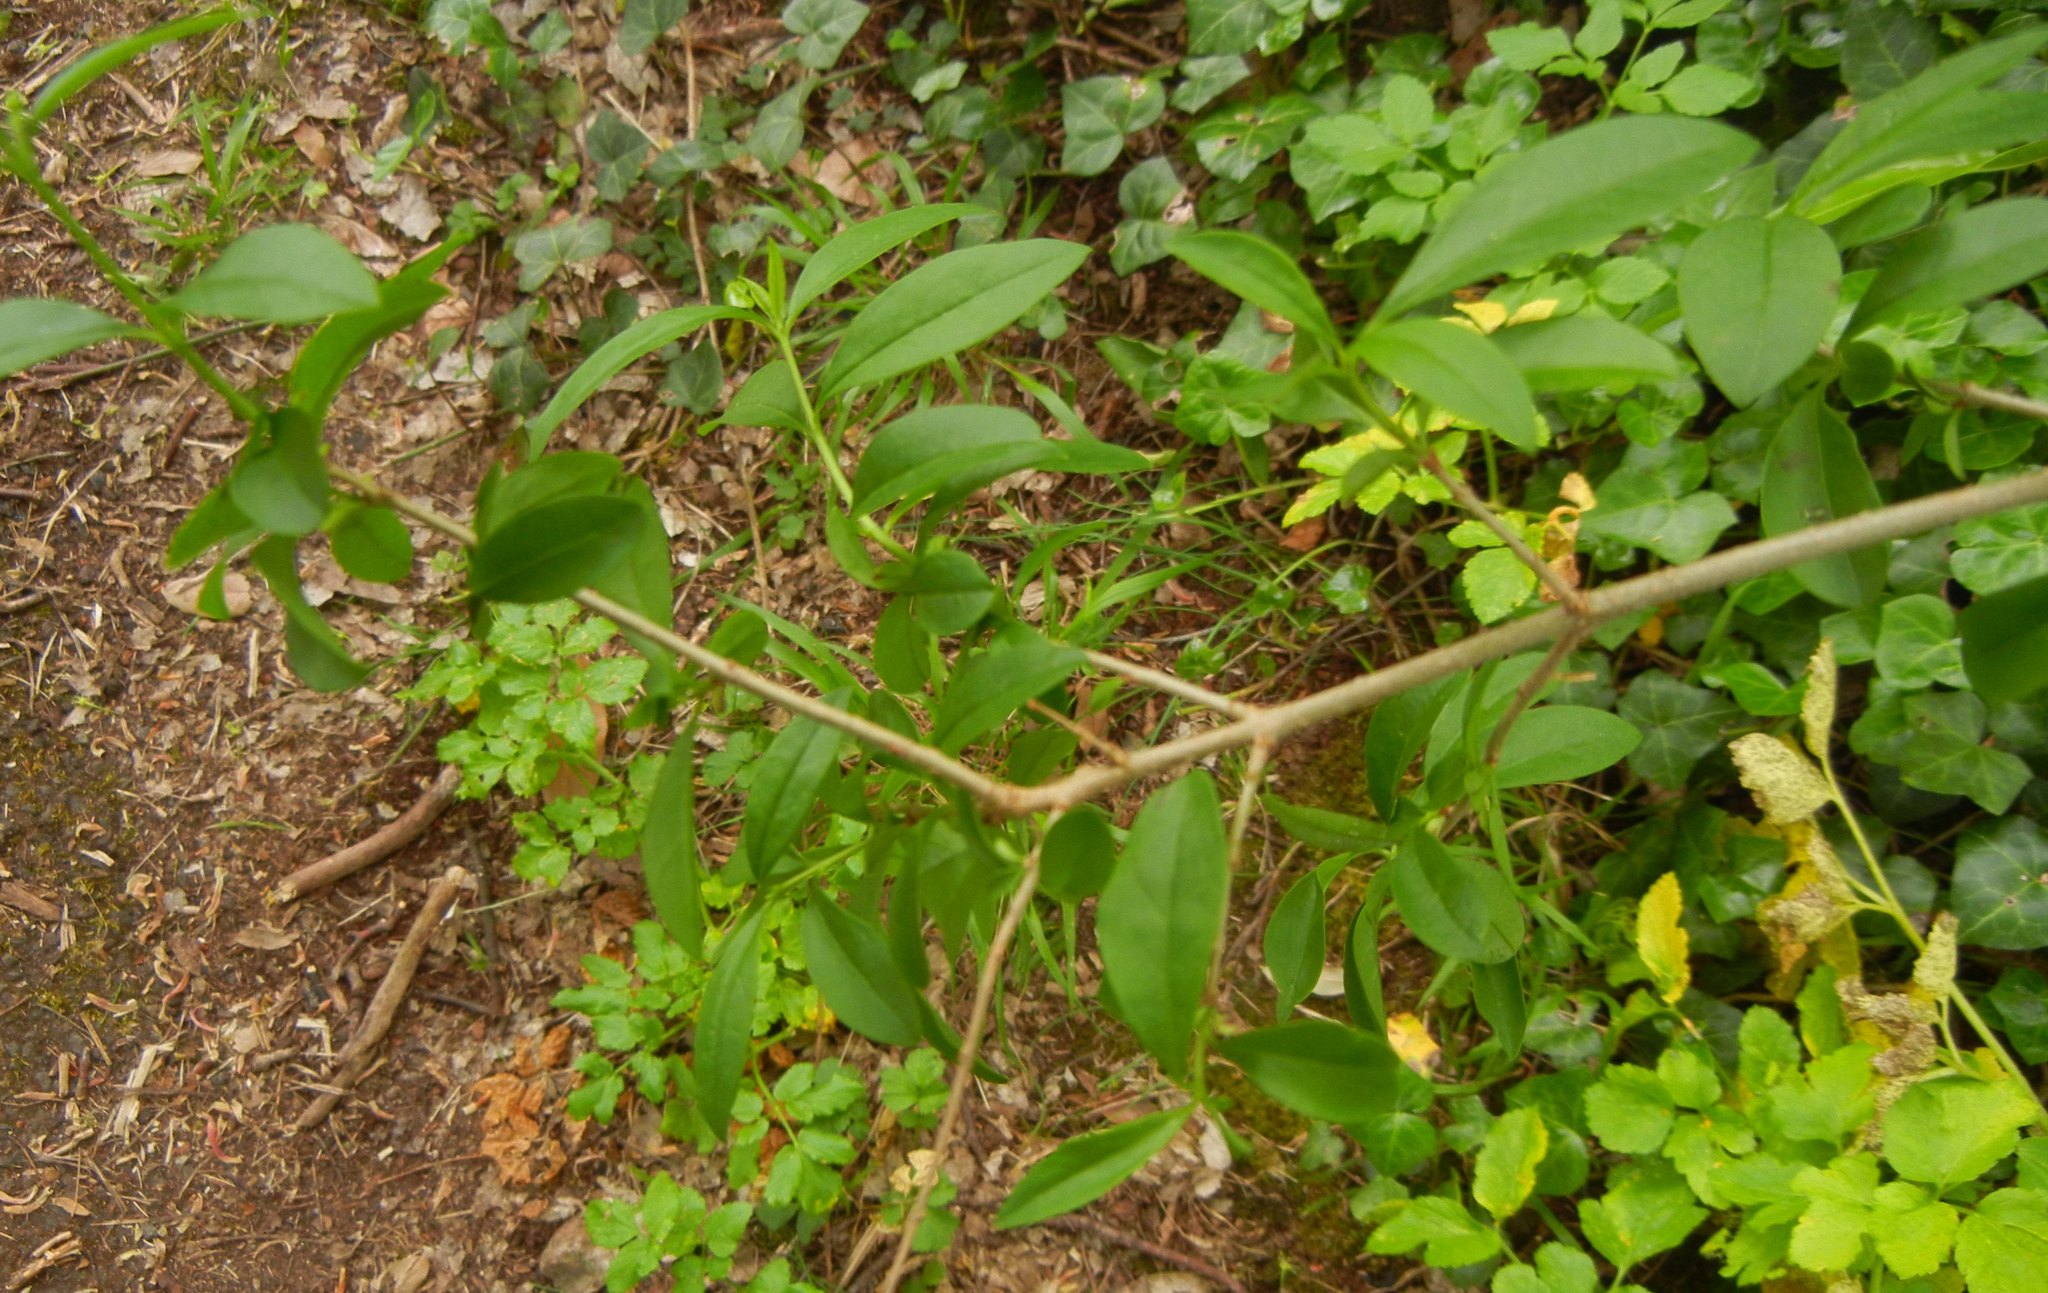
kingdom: Plantae
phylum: Tracheophyta
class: Magnoliopsida
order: Lamiales
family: Oleaceae
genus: Ligustrum
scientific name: Ligustrum vulgare
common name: Wild privet
